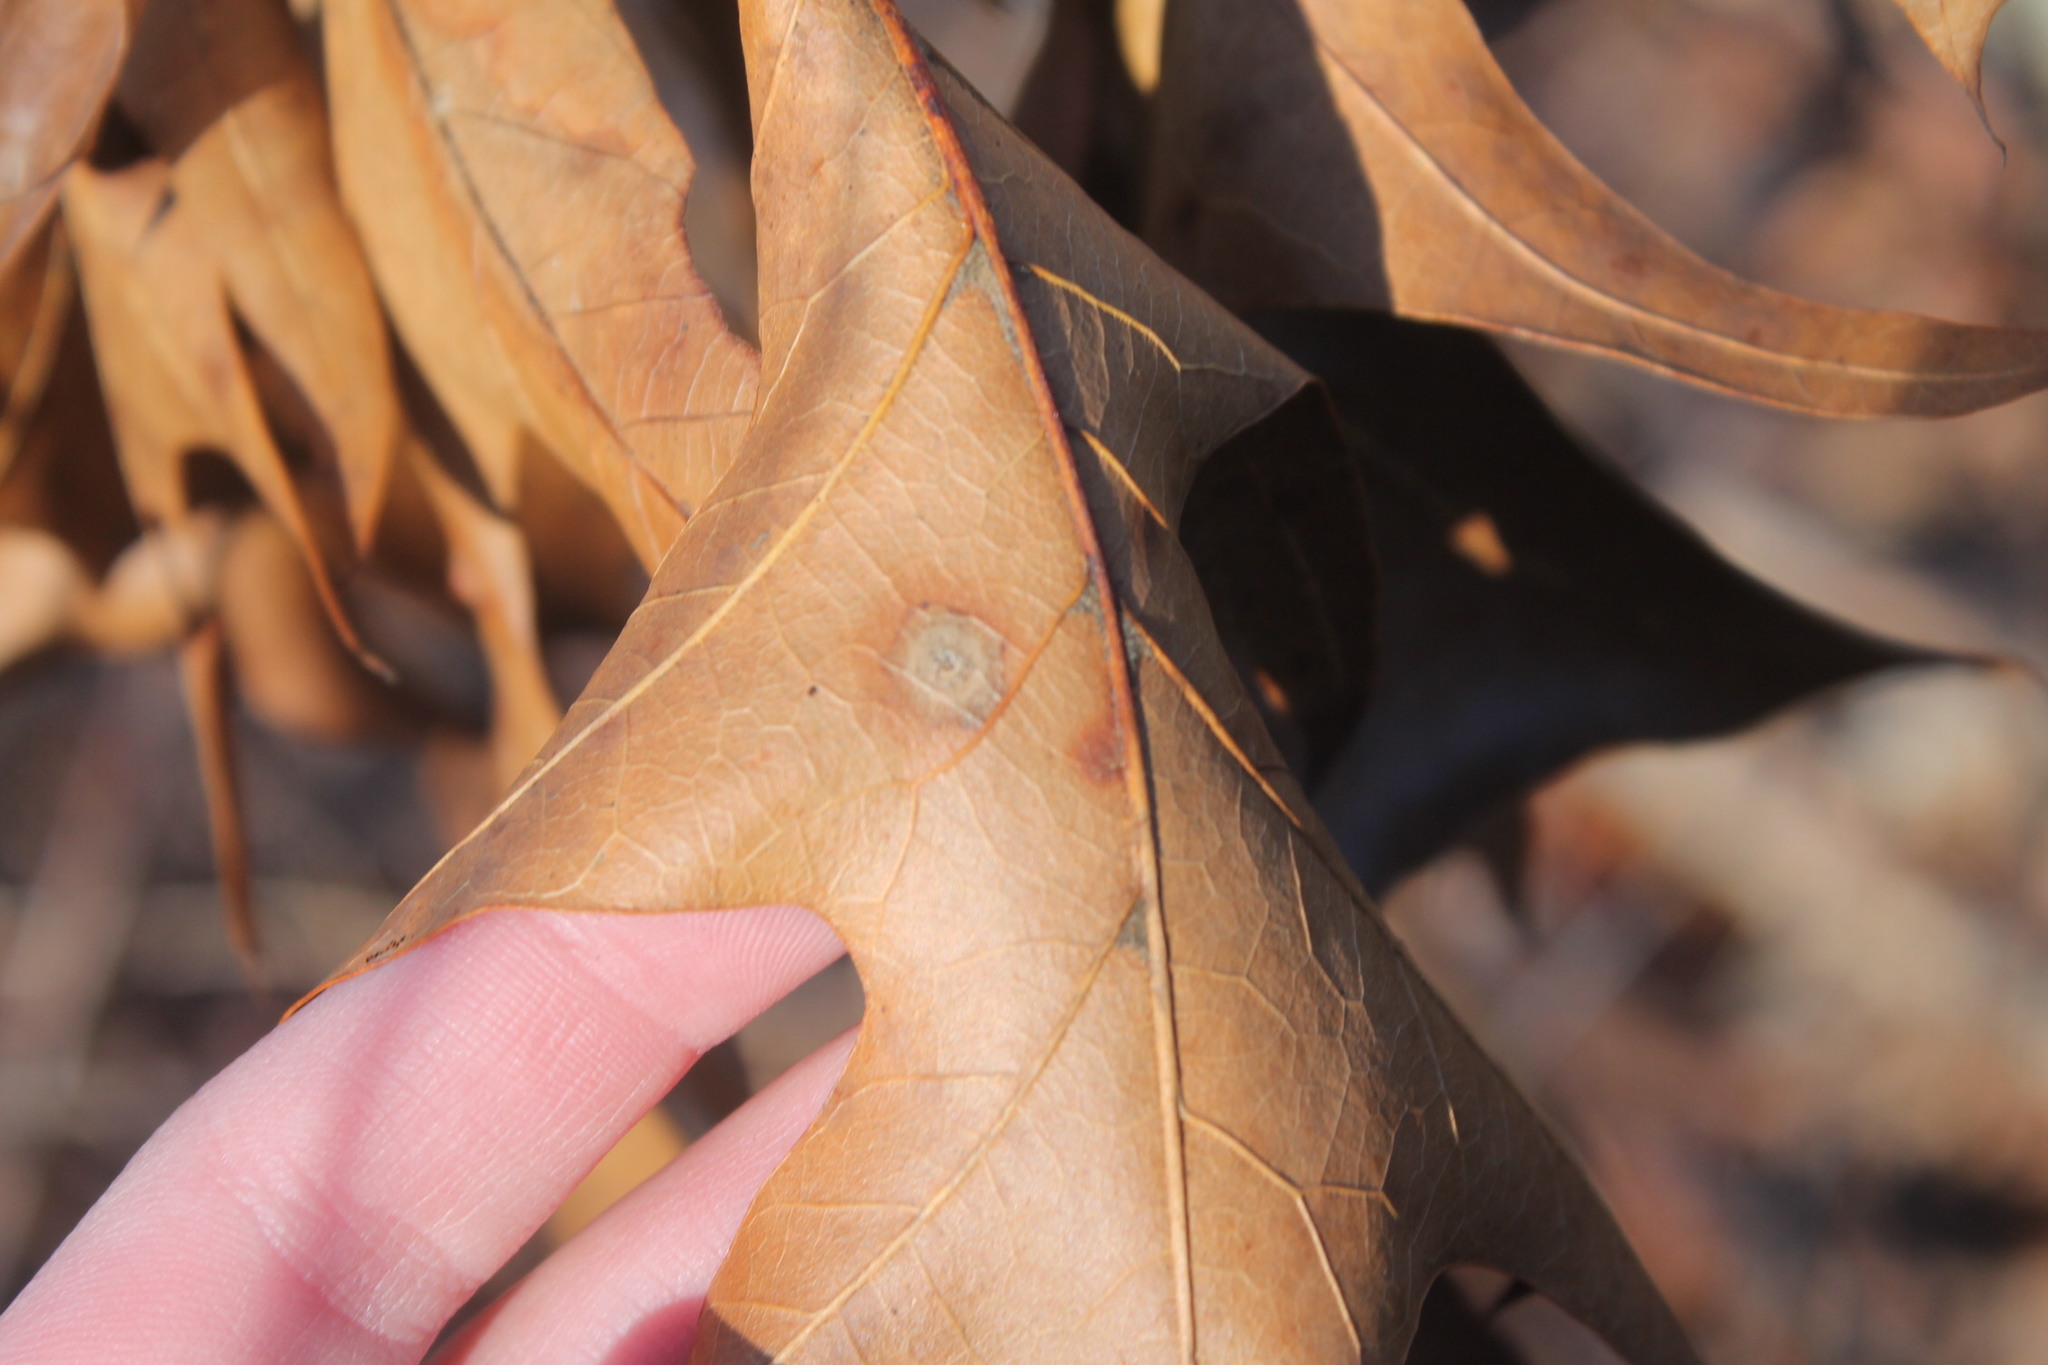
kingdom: Fungi
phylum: Ascomycota
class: Sordariomycetes
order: Diaporthales
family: Melanconidaceae
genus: Dicarpella
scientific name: Dicarpella dryina
